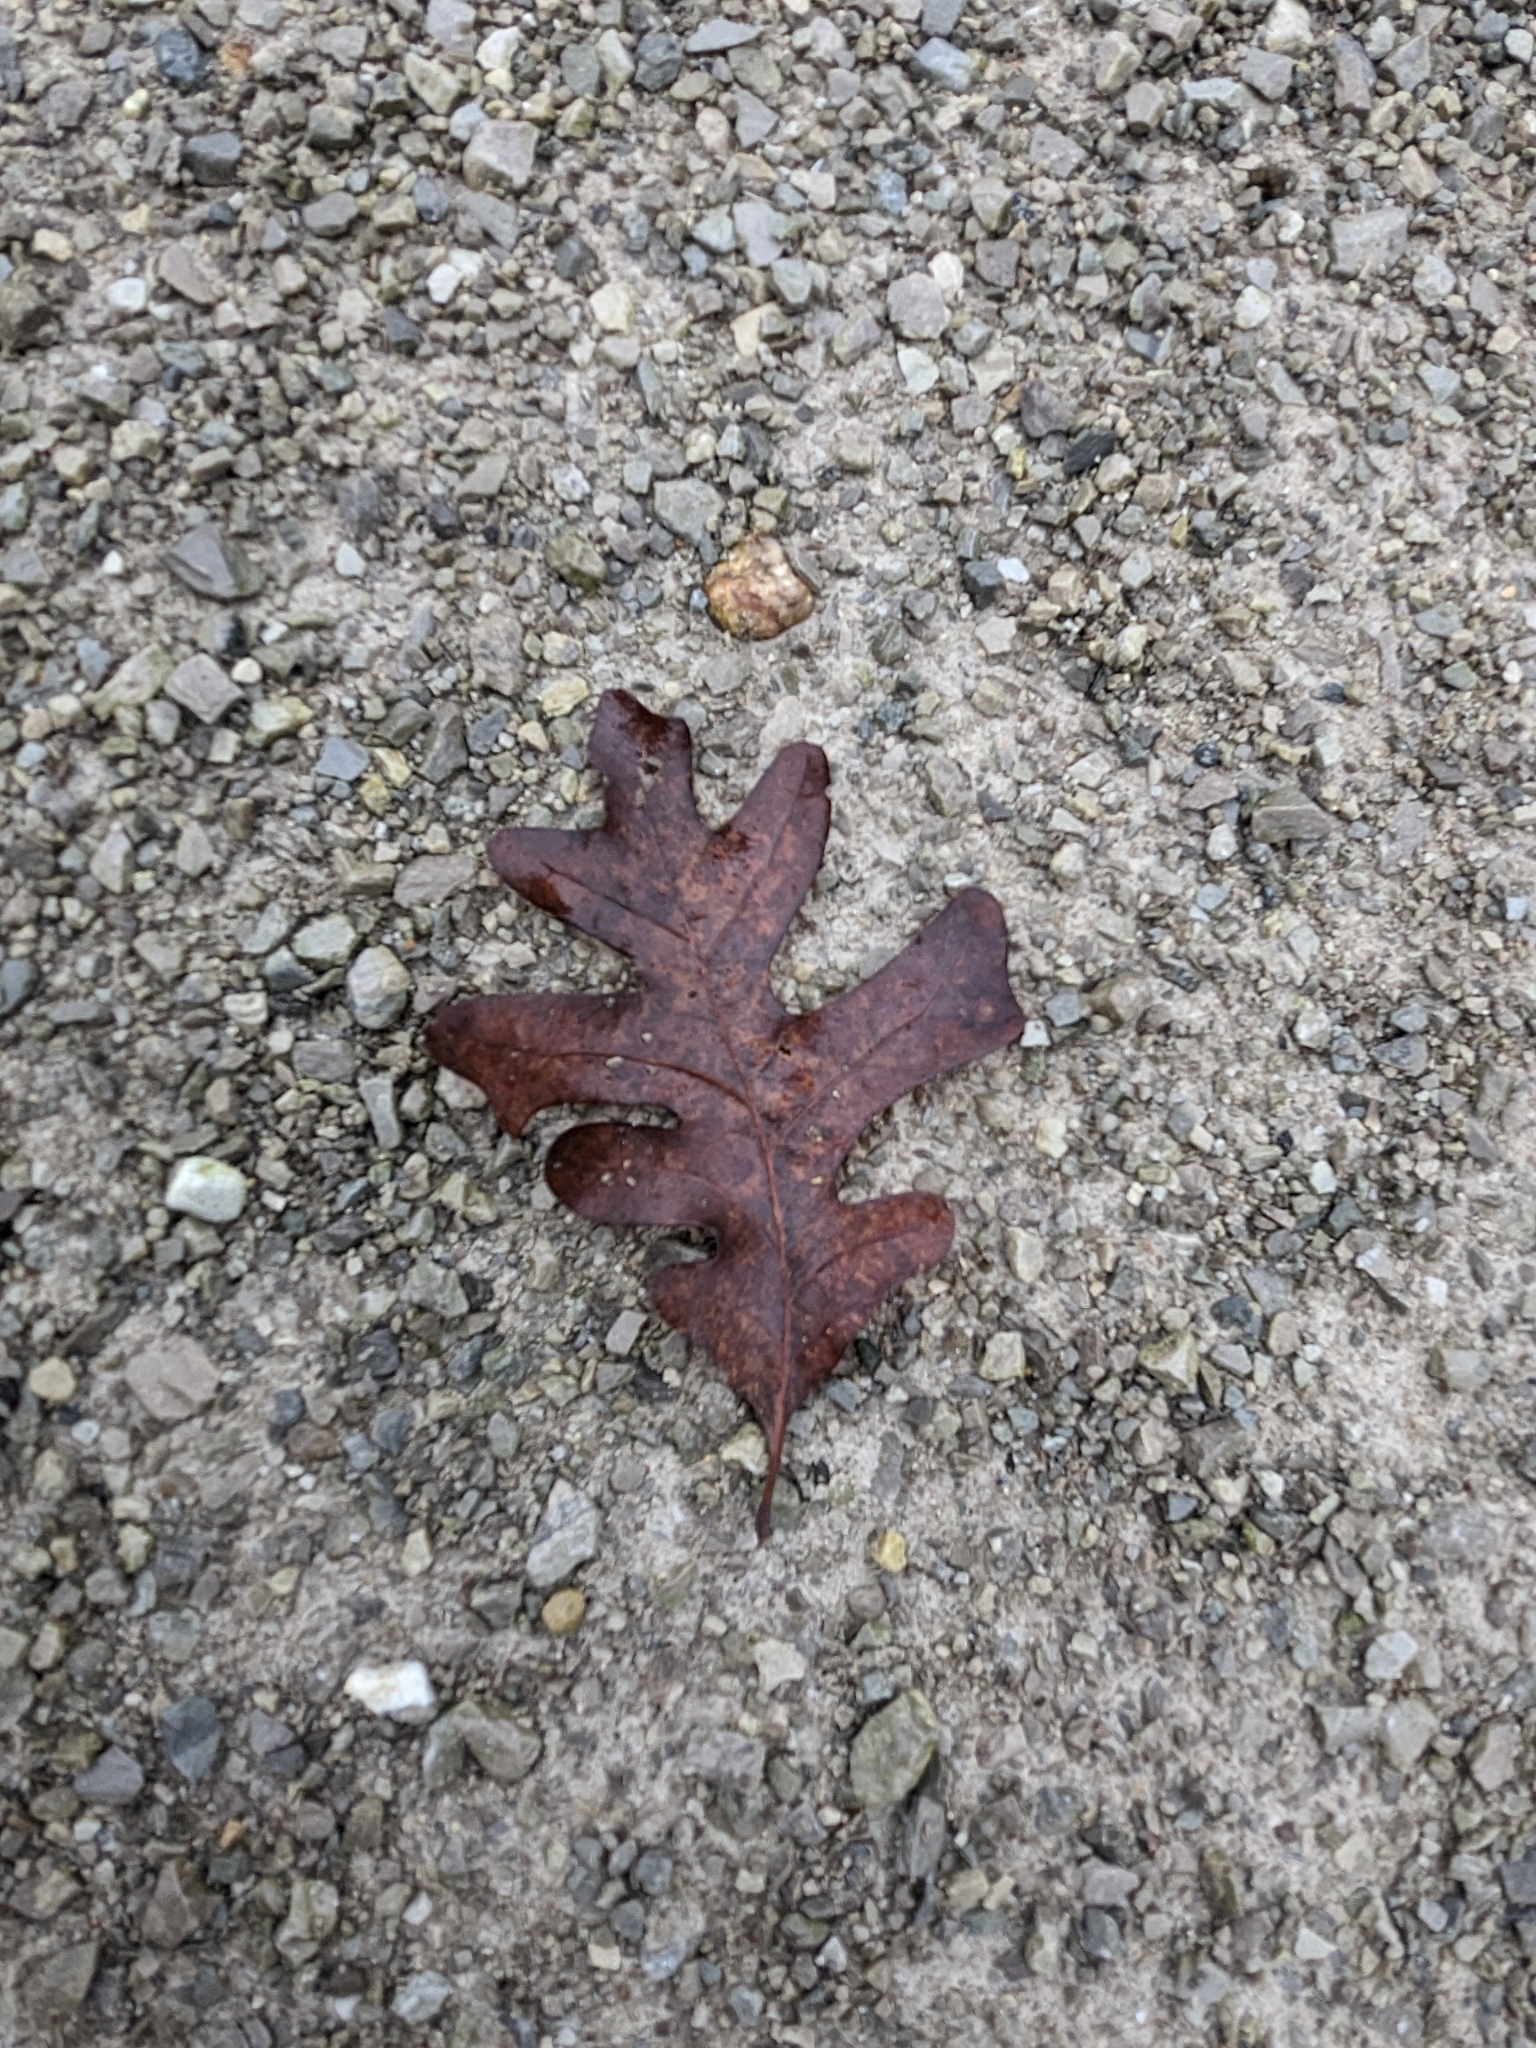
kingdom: Plantae
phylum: Tracheophyta
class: Magnoliopsida
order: Fagales
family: Fagaceae
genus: Quercus
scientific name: Quercus alba
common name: White oak
